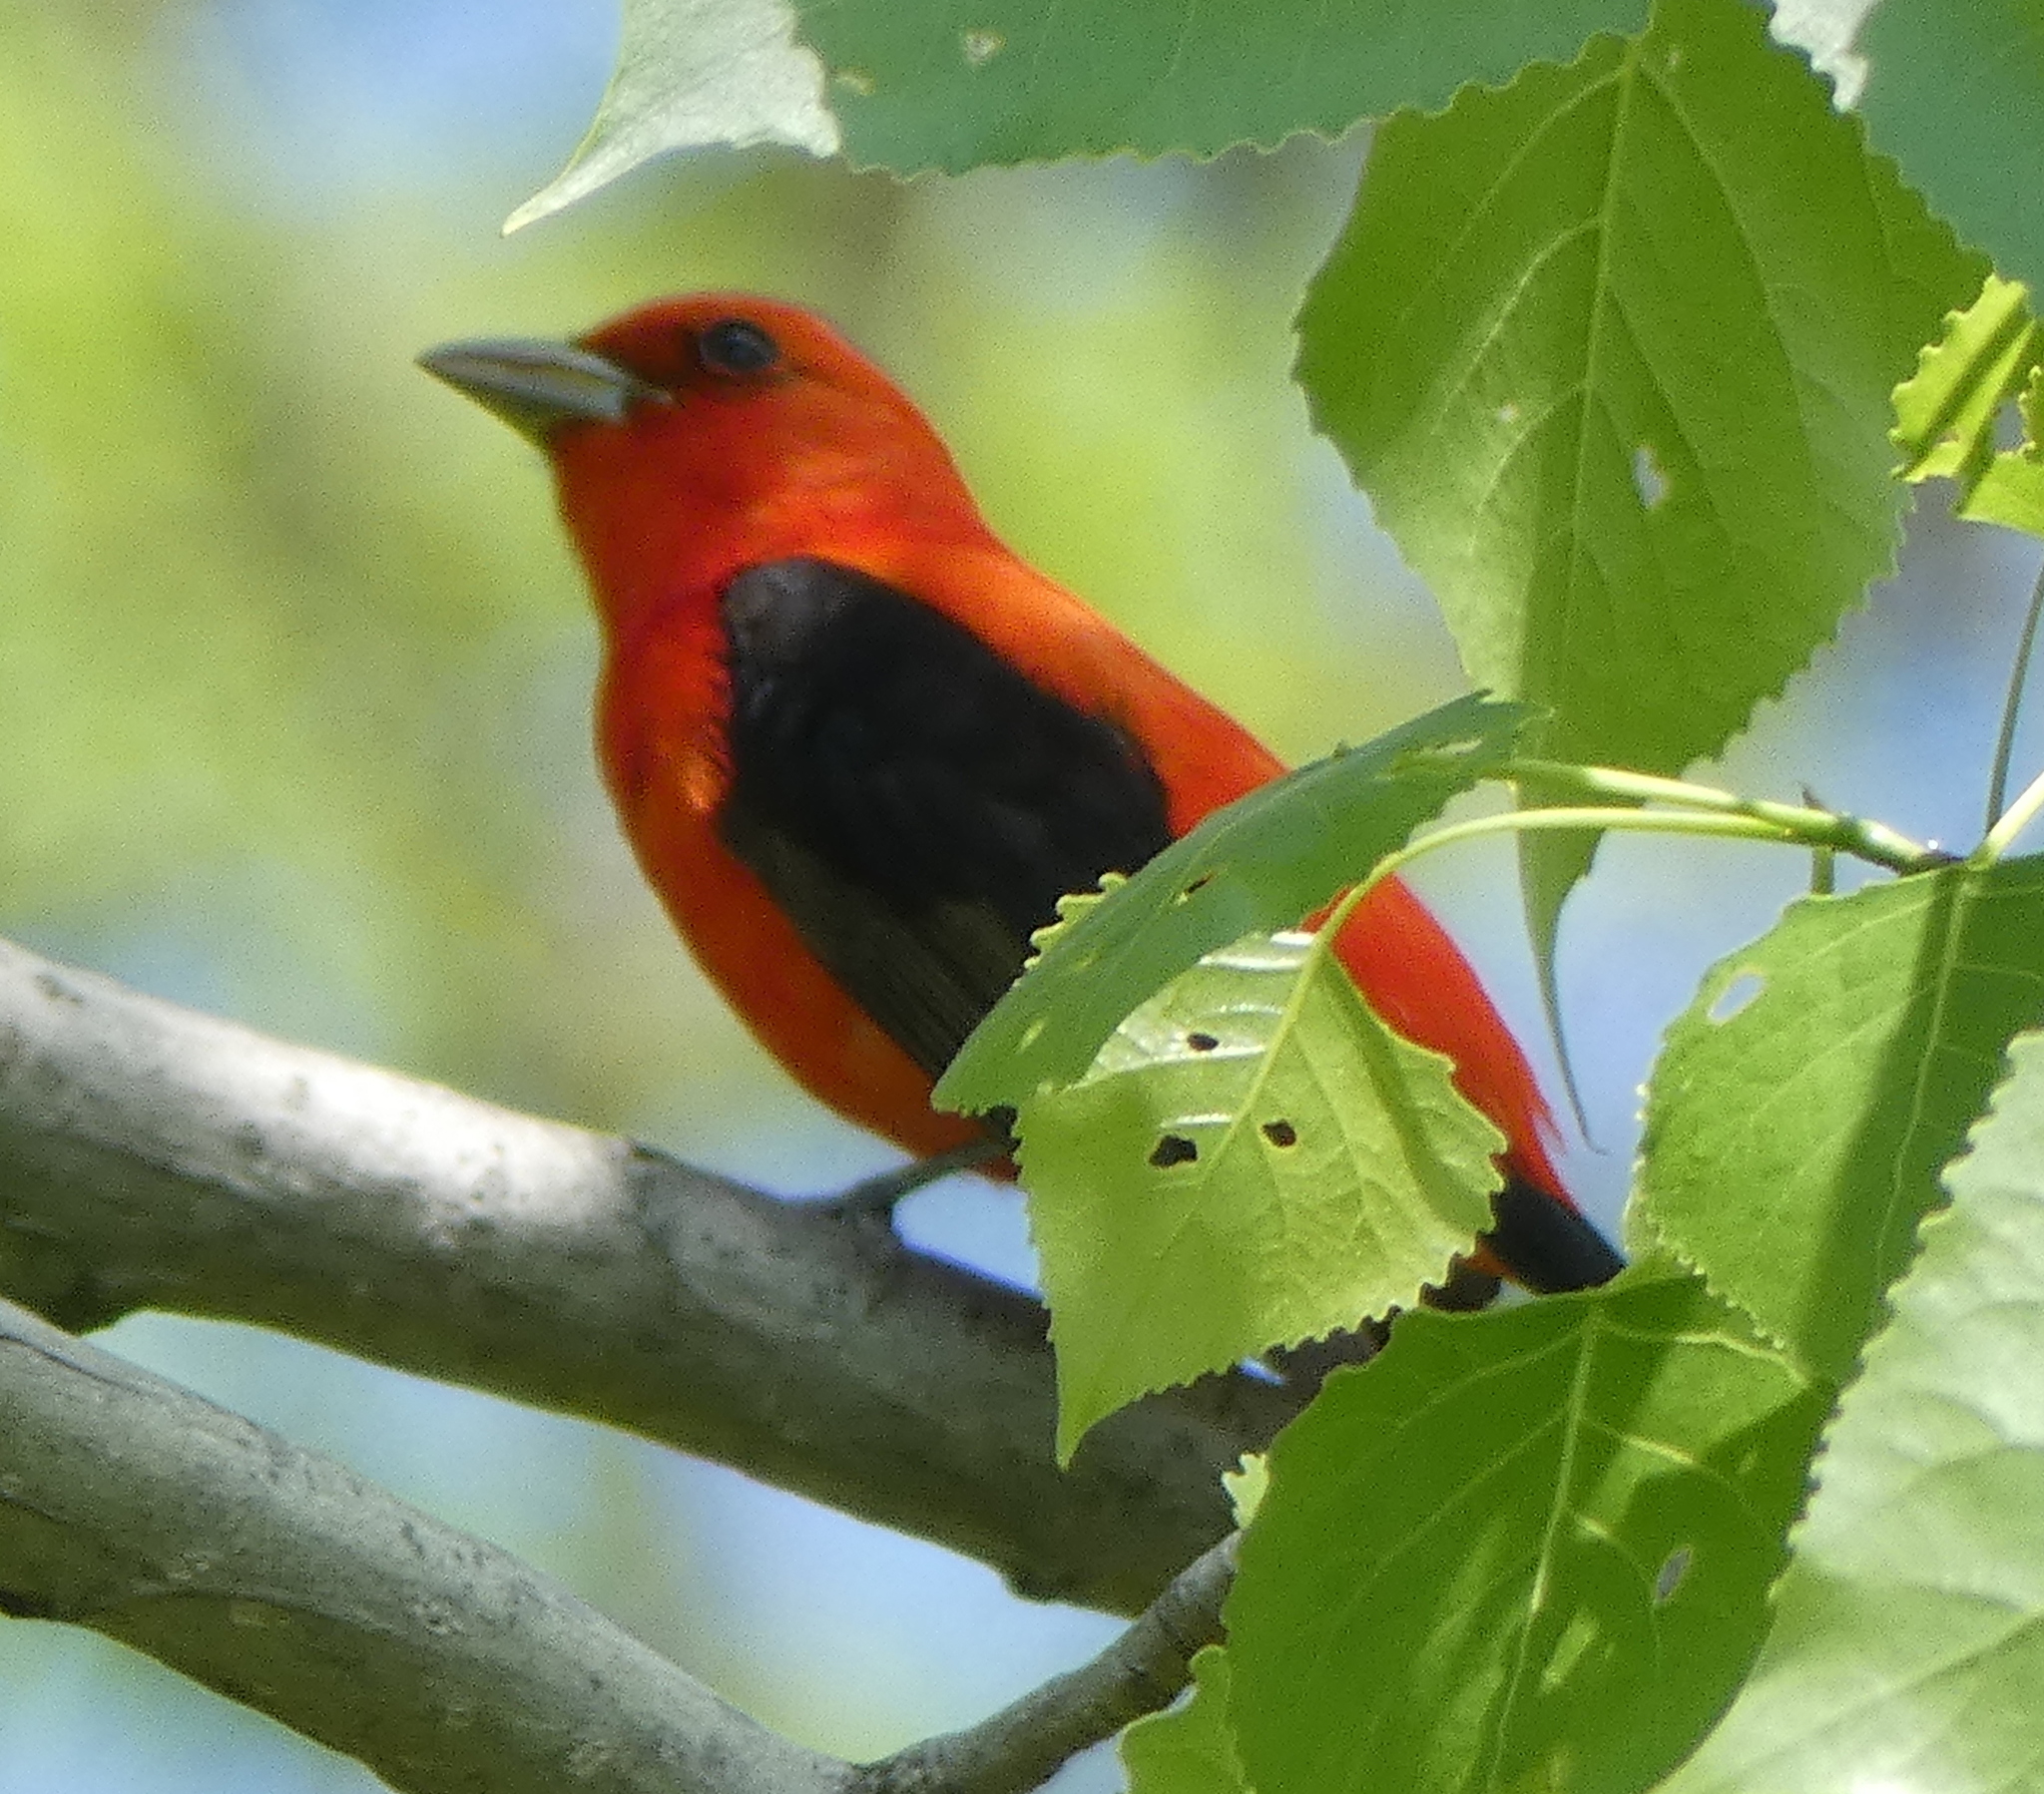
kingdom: Animalia
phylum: Chordata
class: Aves
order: Passeriformes
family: Cardinalidae
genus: Piranga
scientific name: Piranga olivacea
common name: Scarlet tanager
